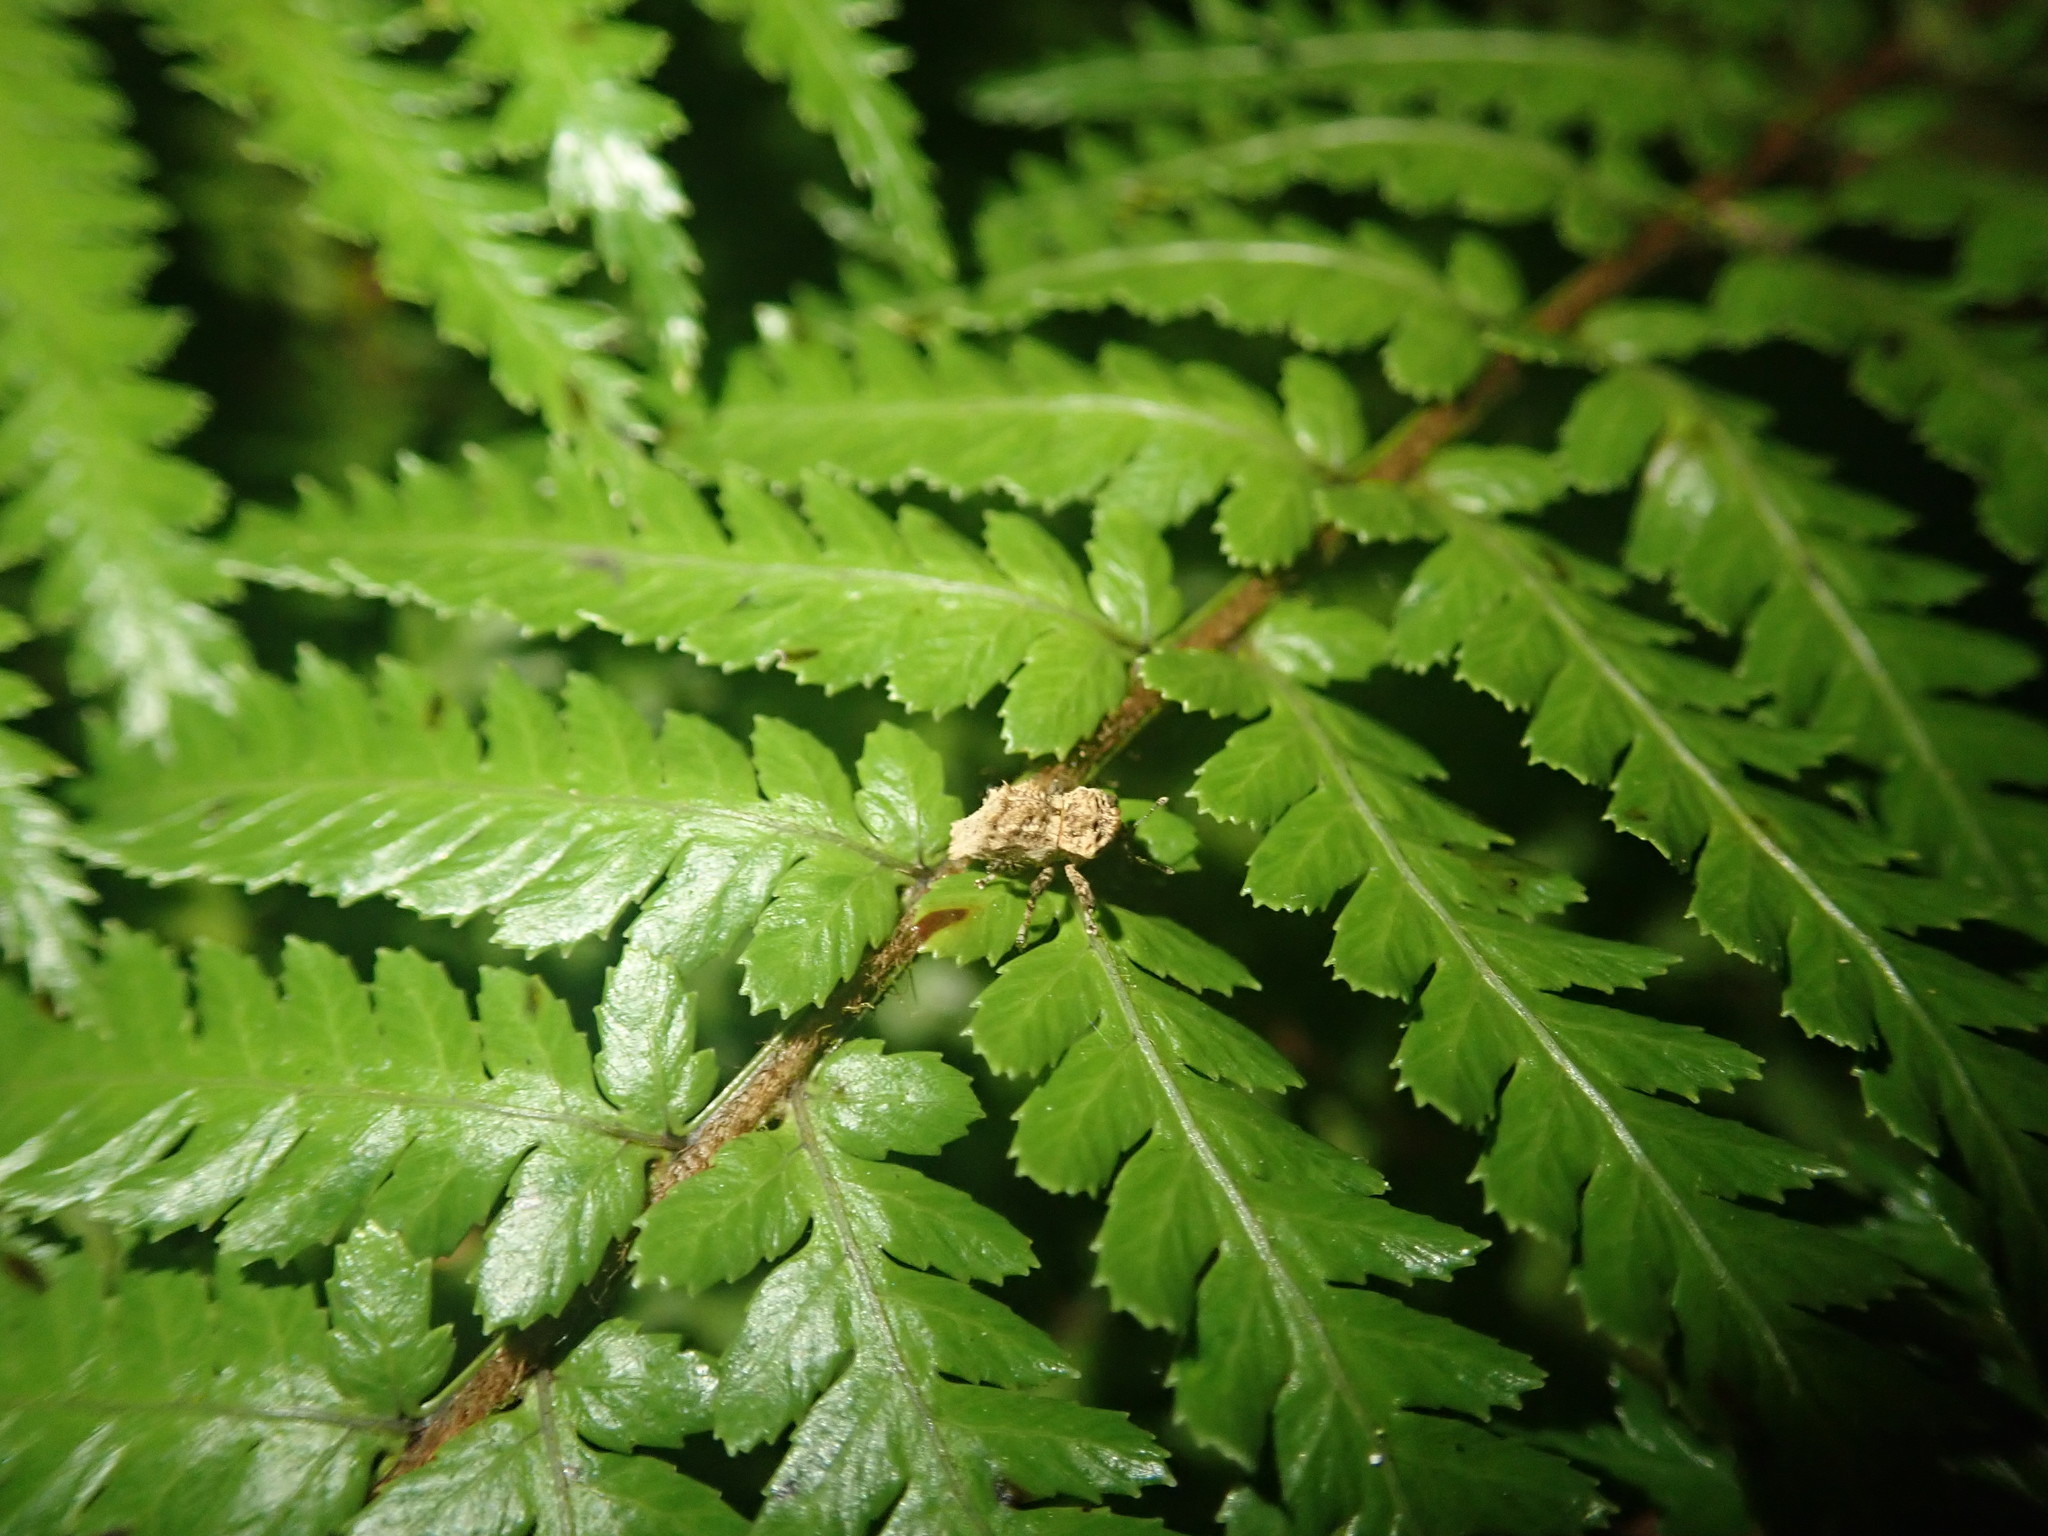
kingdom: Animalia
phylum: Arthropoda
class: Insecta
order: Coleoptera
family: Curculionidae
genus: Indecentia
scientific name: Indecentia nubila
